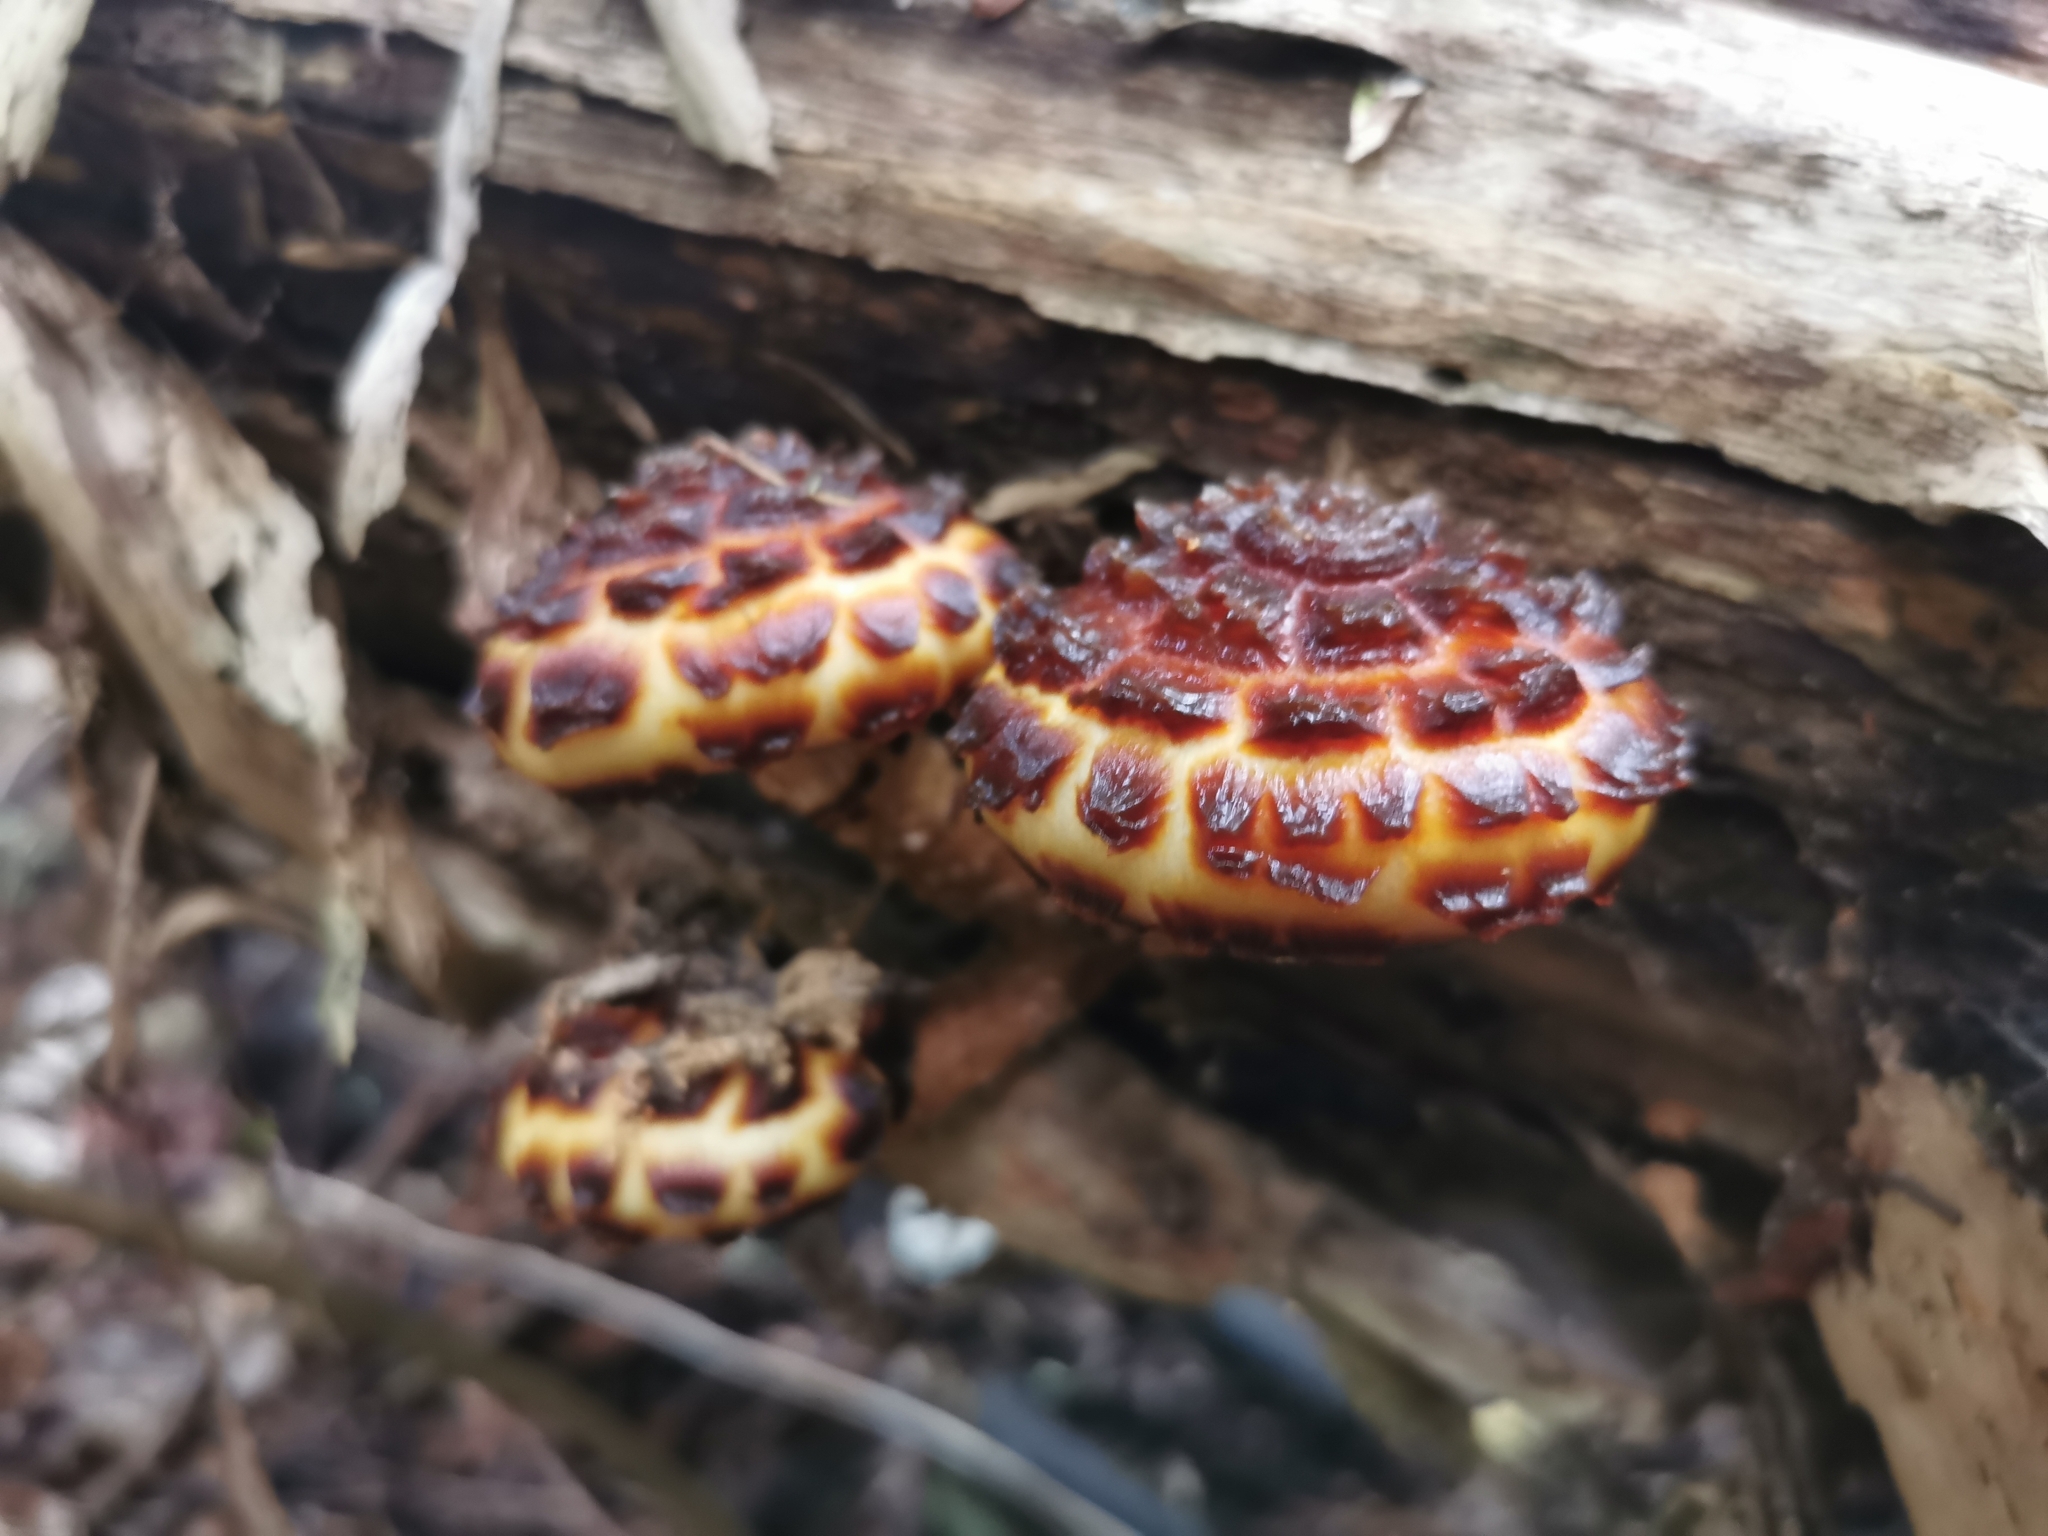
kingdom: Fungi
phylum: Basidiomycota
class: Agaricomycetes
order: Agaricales
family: Strophariaceae
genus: Pholiota
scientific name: Pholiota glutinosa
